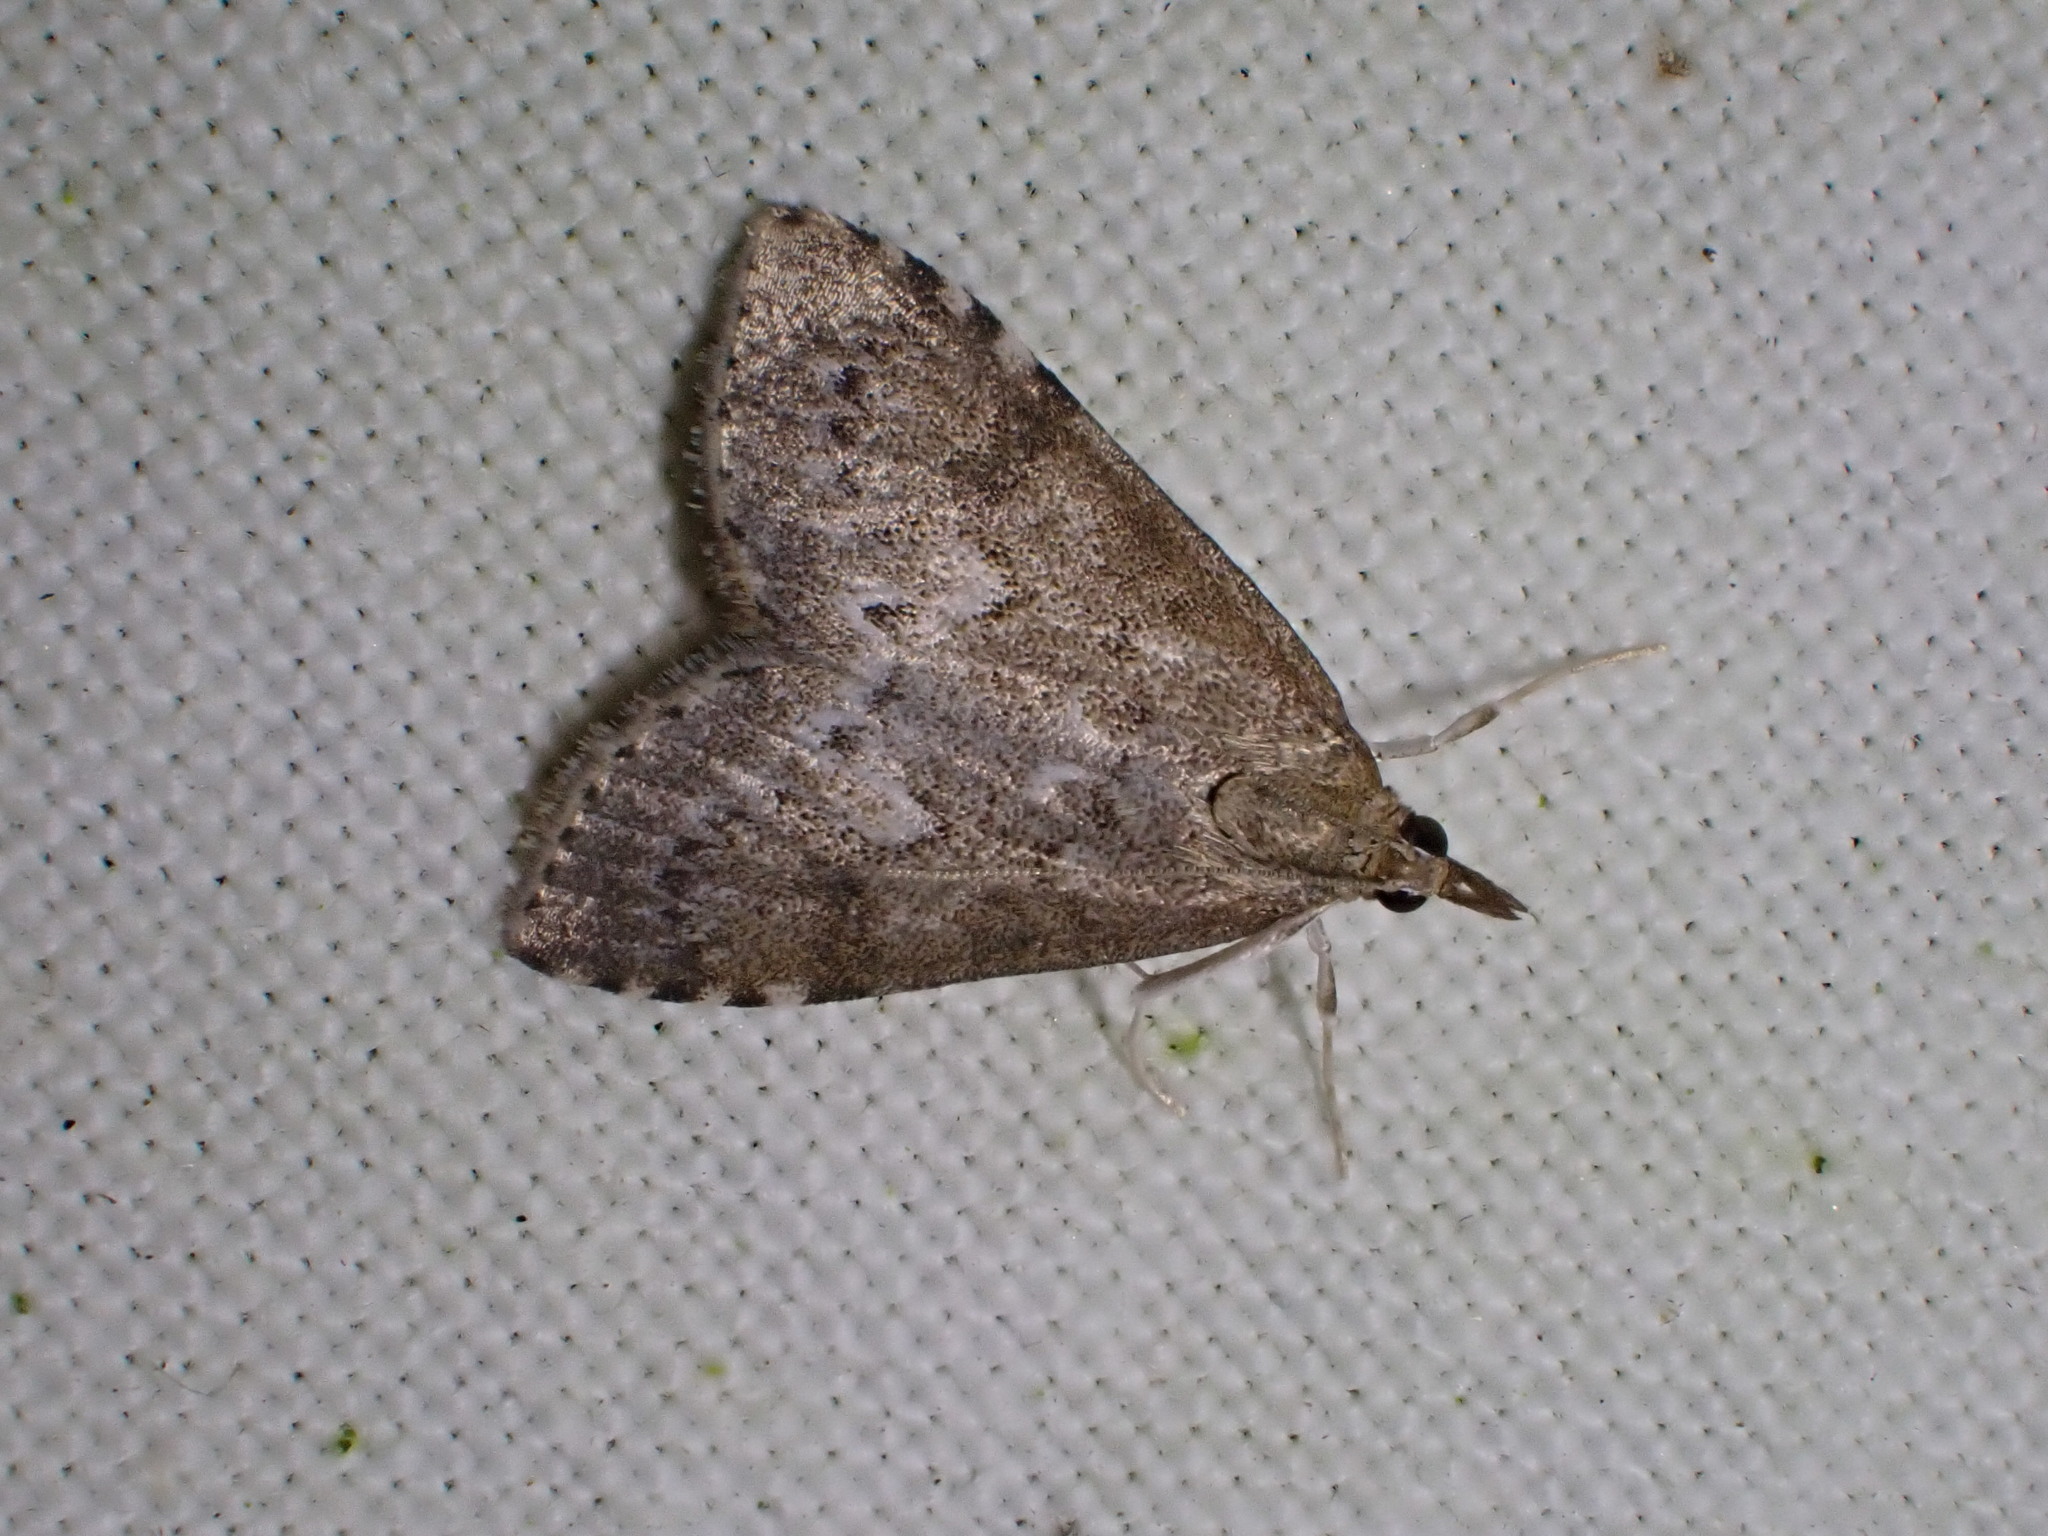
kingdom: Animalia
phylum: Arthropoda
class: Insecta
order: Lepidoptera
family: Crambidae
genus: Udea
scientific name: Udea prunalis
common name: Dusky pearl
